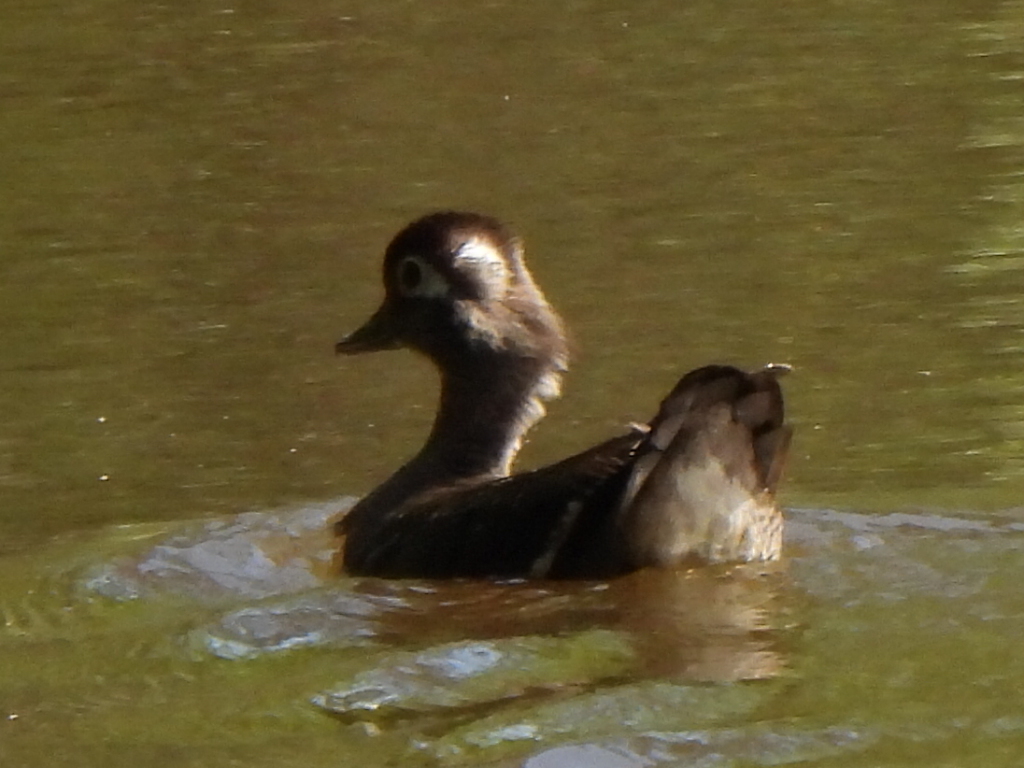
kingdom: Animalia
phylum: Chordata
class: Aves
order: Anseriformes
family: Anatidae
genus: Aix
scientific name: Aix sponsa
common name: Wood duck
